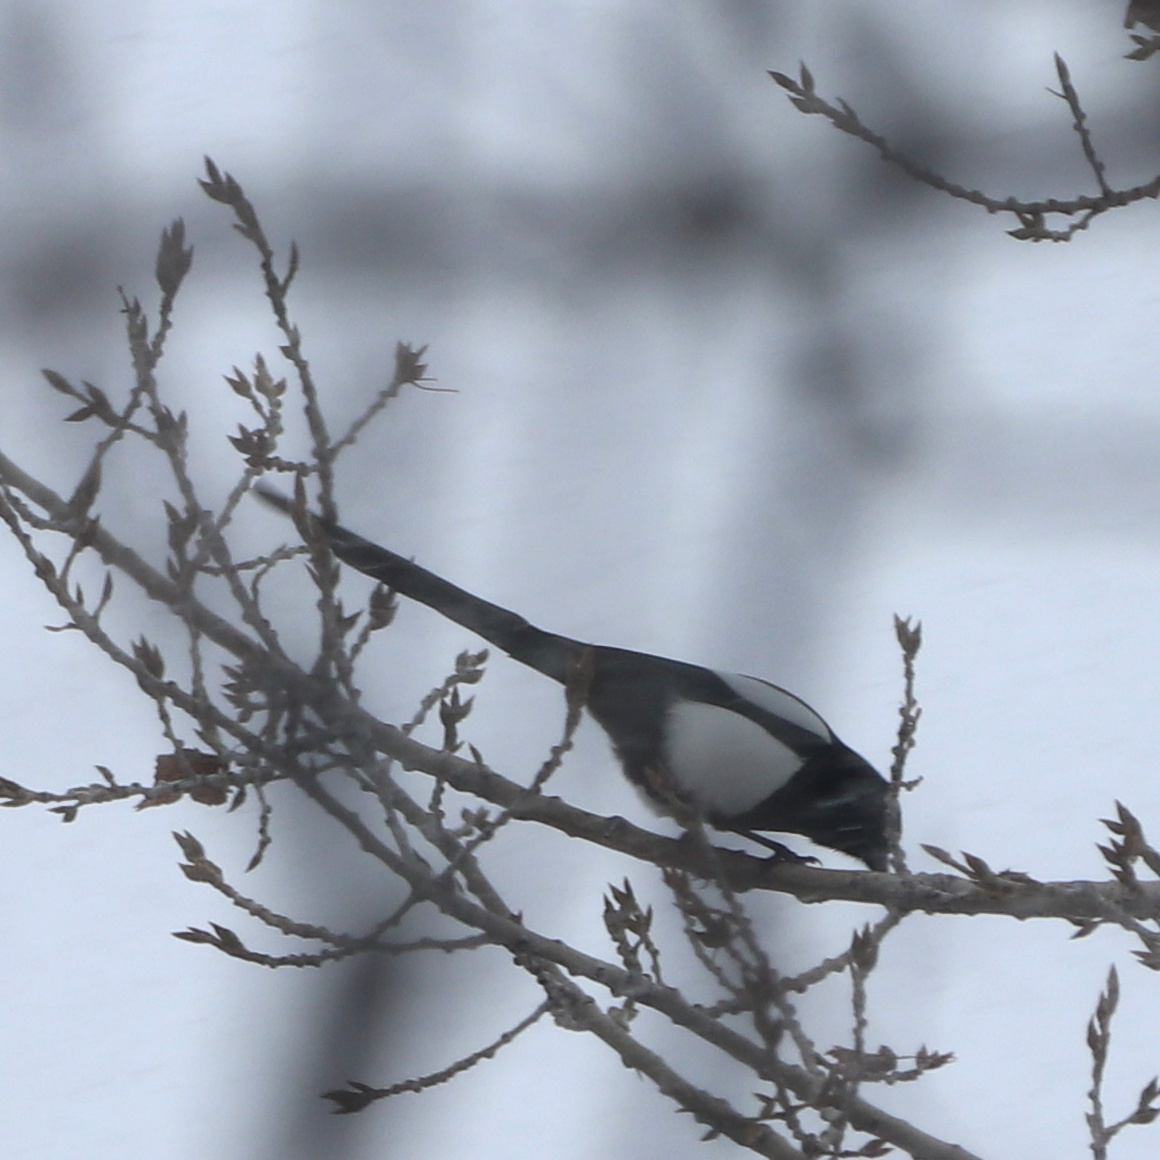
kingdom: Animalia
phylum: Chordata
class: Aves
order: Passeriformes
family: Corvidae
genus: Pica
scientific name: Pica hudsonia
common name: Black-billed magpie
